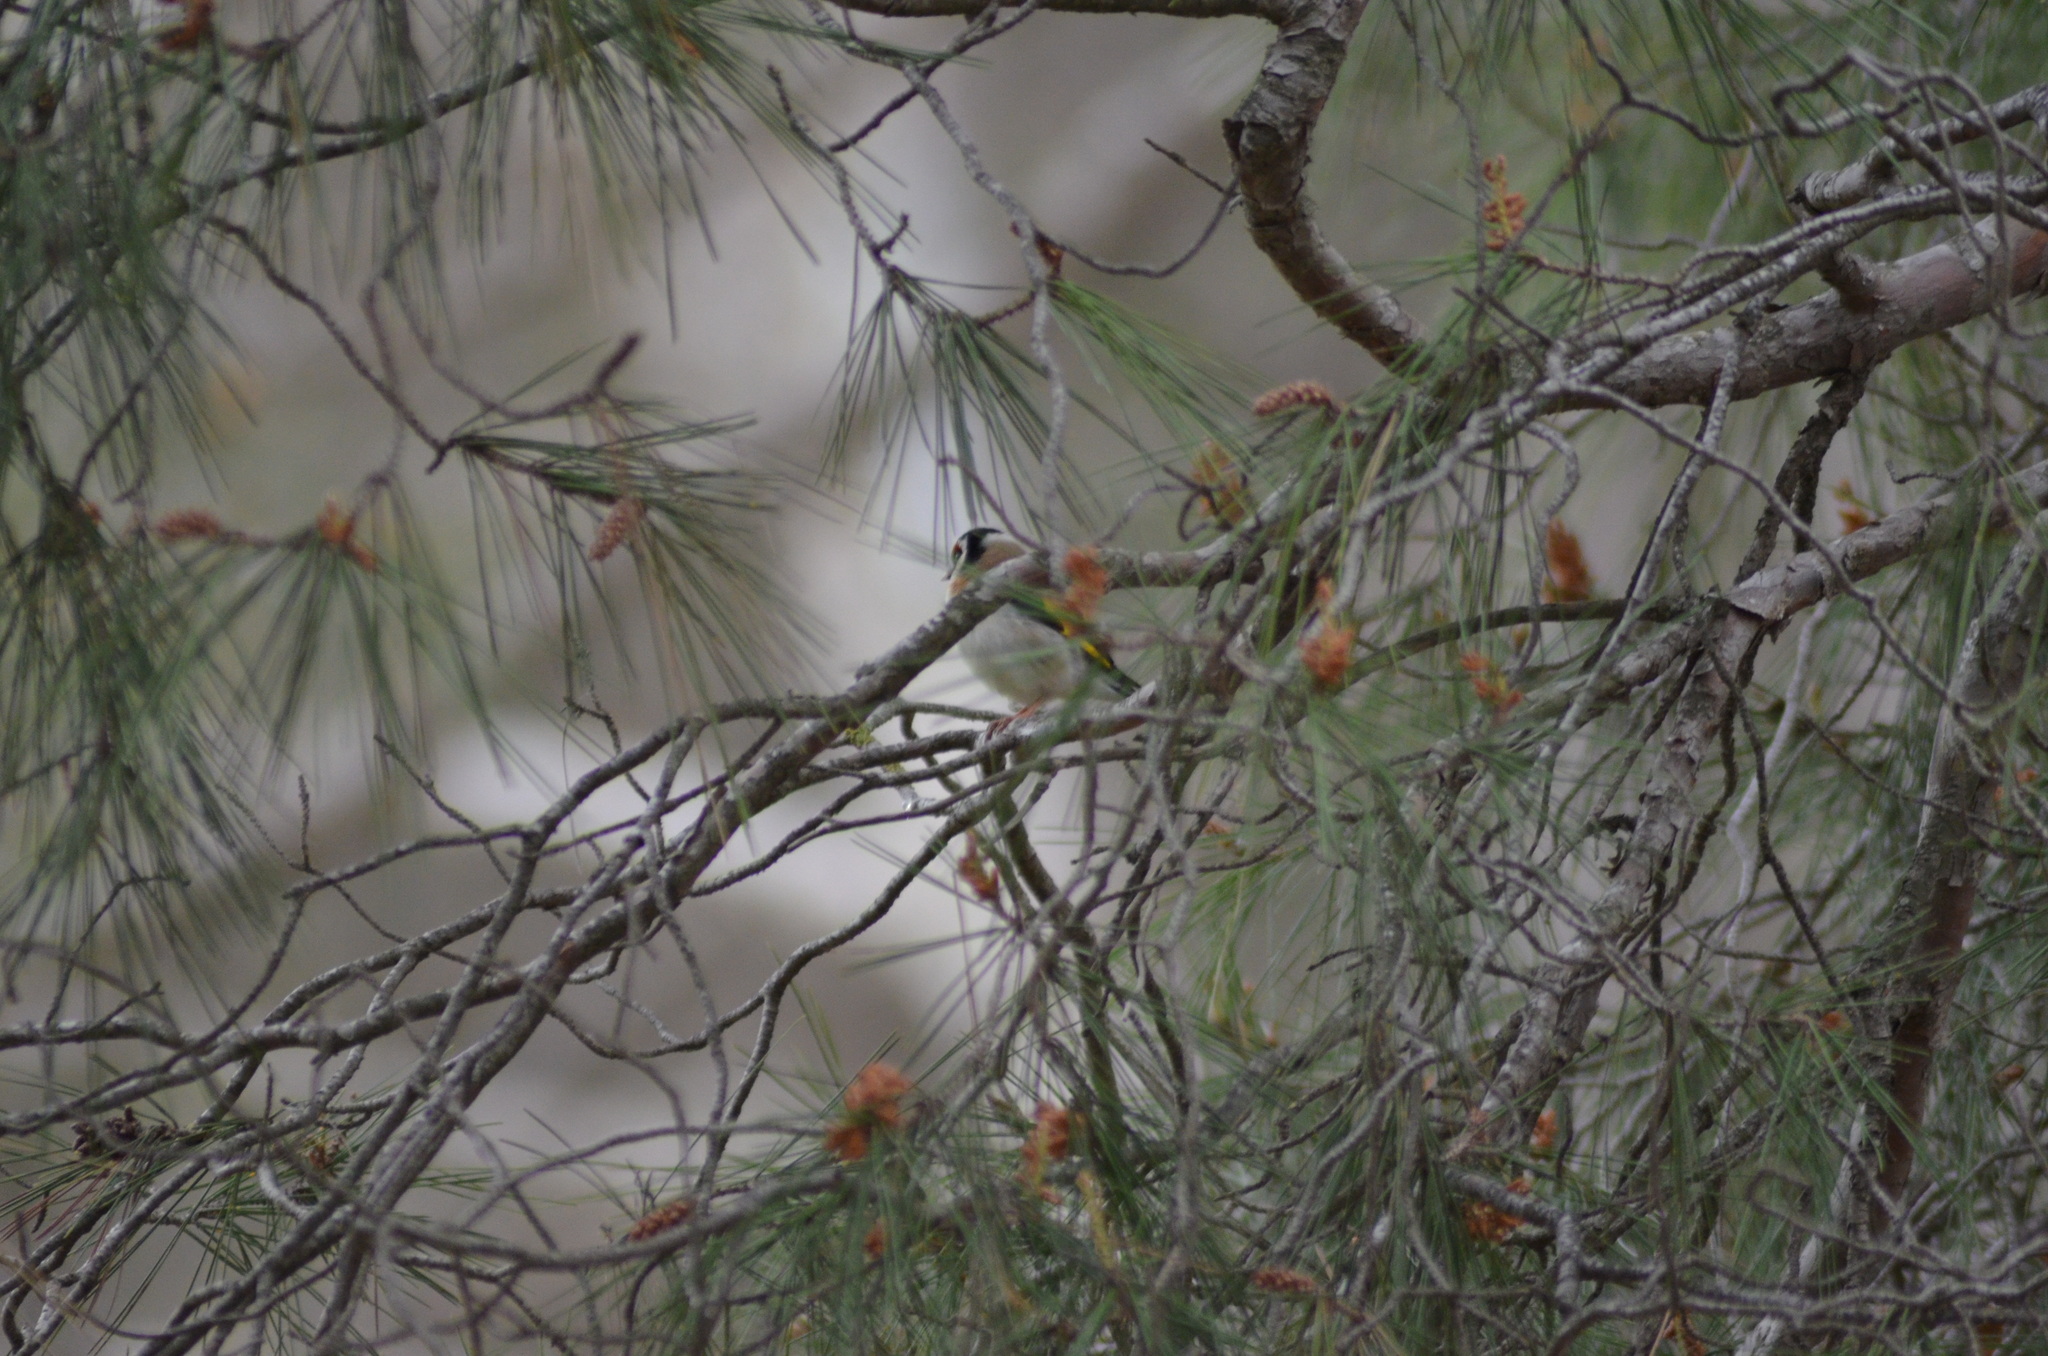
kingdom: Animalia
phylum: Chordata
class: Aves
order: Passeriformes
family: Fringillidae
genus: Carduelis
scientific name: Carduelis carduelis
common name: European goldfinch
